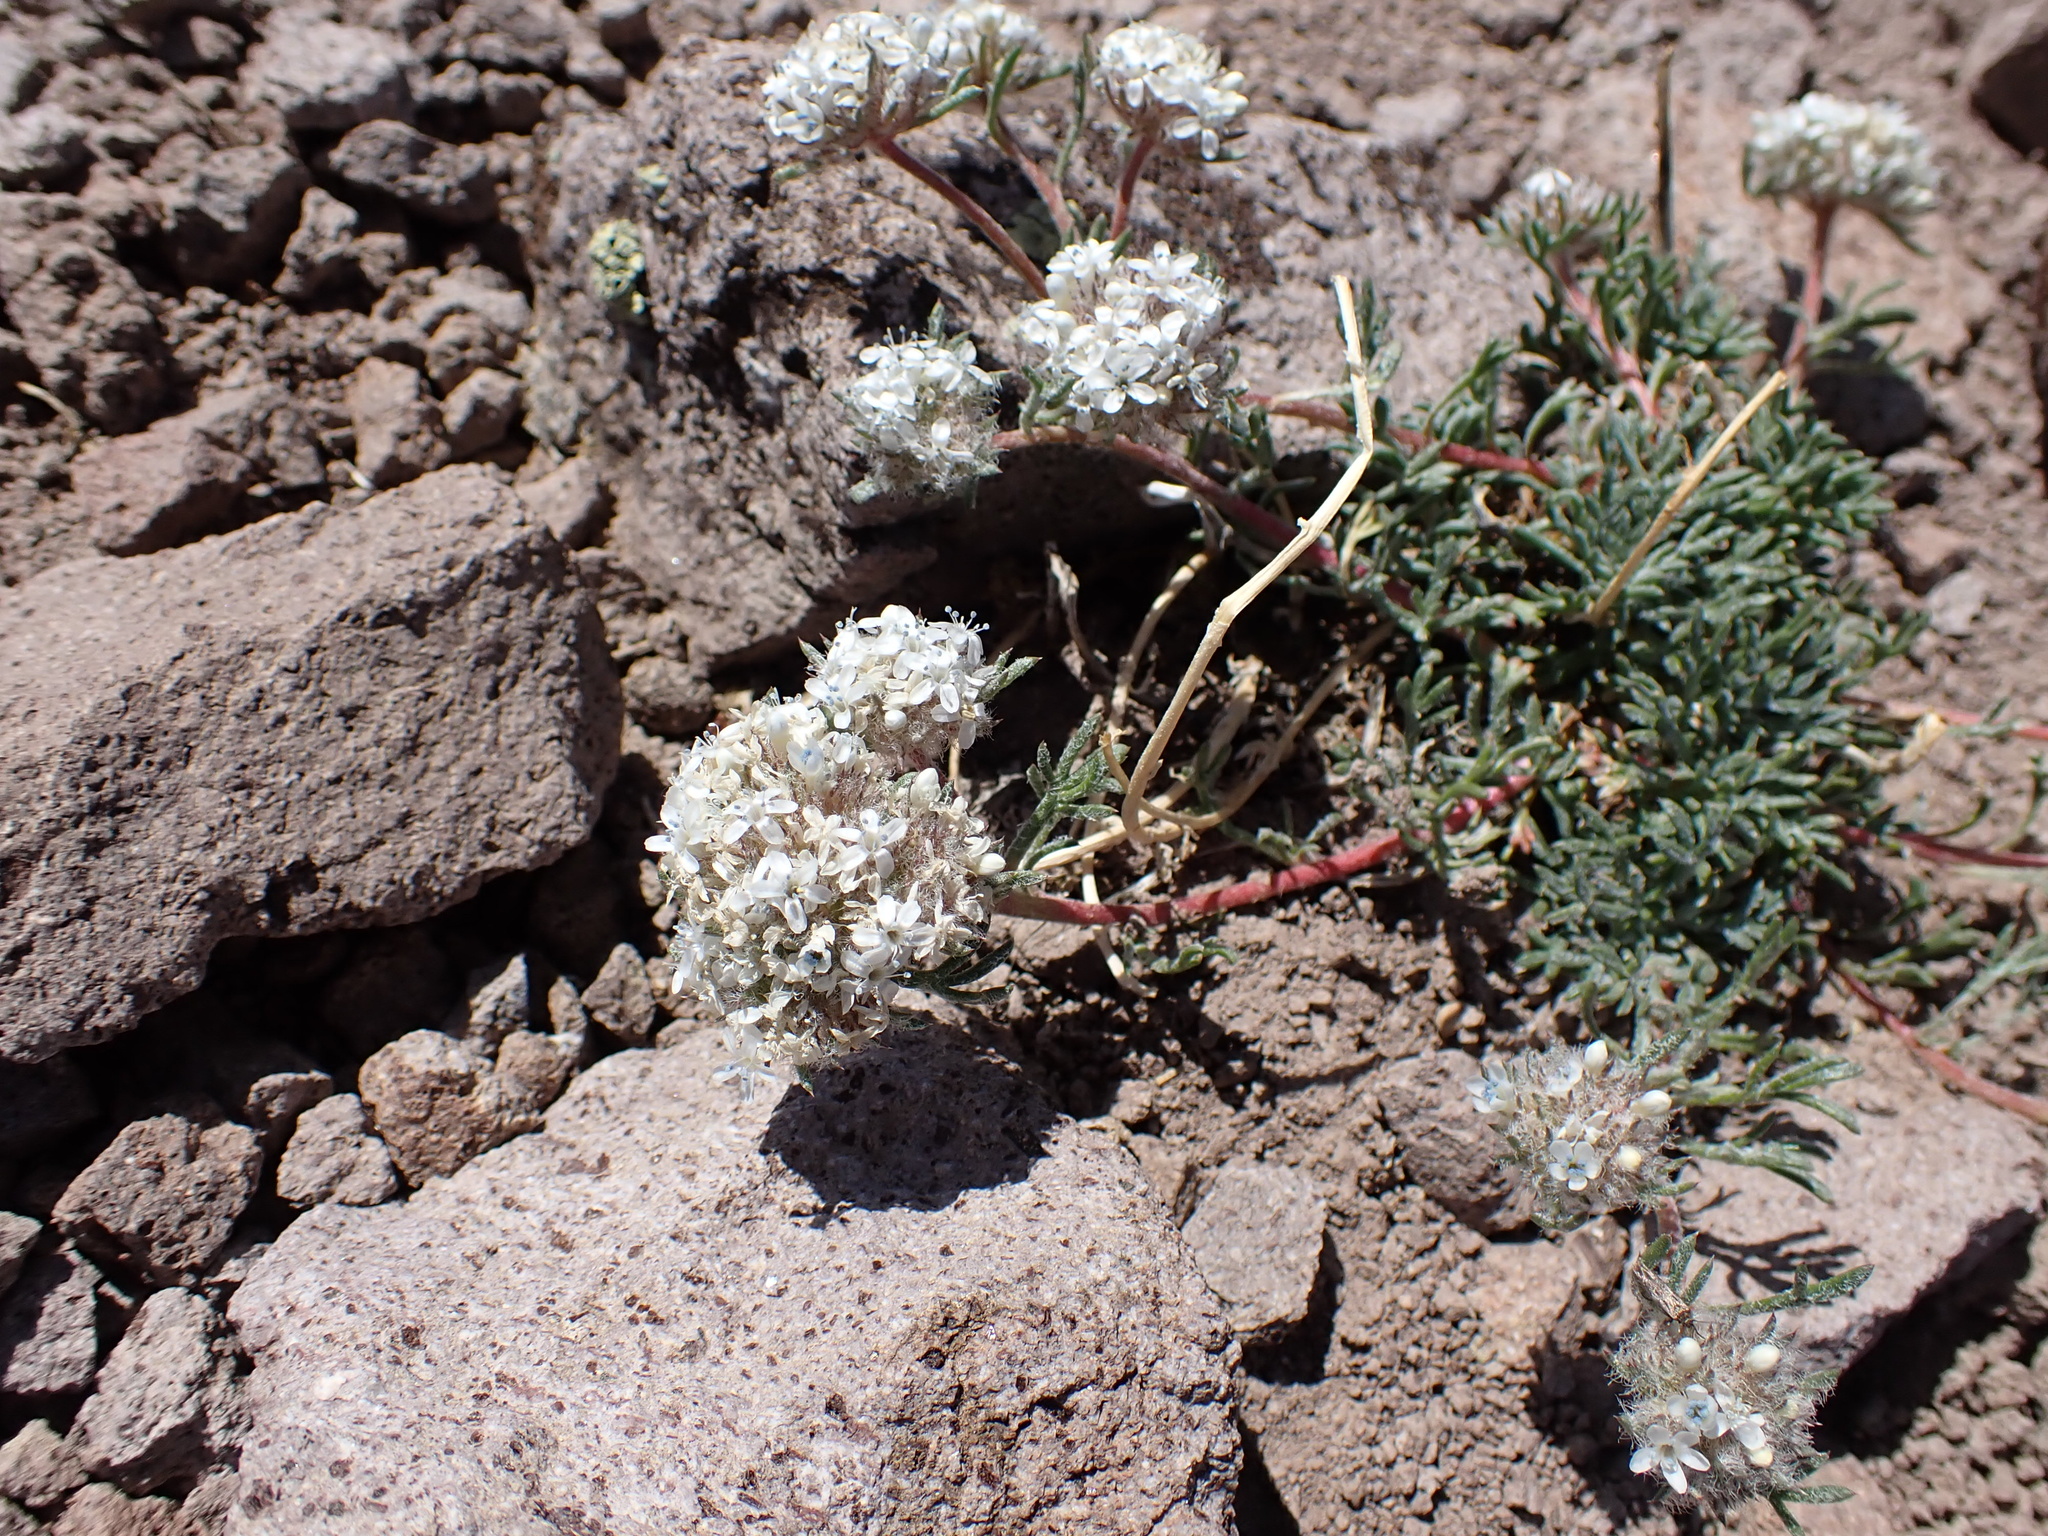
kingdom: Plantae
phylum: Tracheophyta
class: Magnoliopsida
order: Ericales
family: Polemoniaceae
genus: Ipomopsis
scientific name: Ipomopsis congesta
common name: Ball-head gilia
